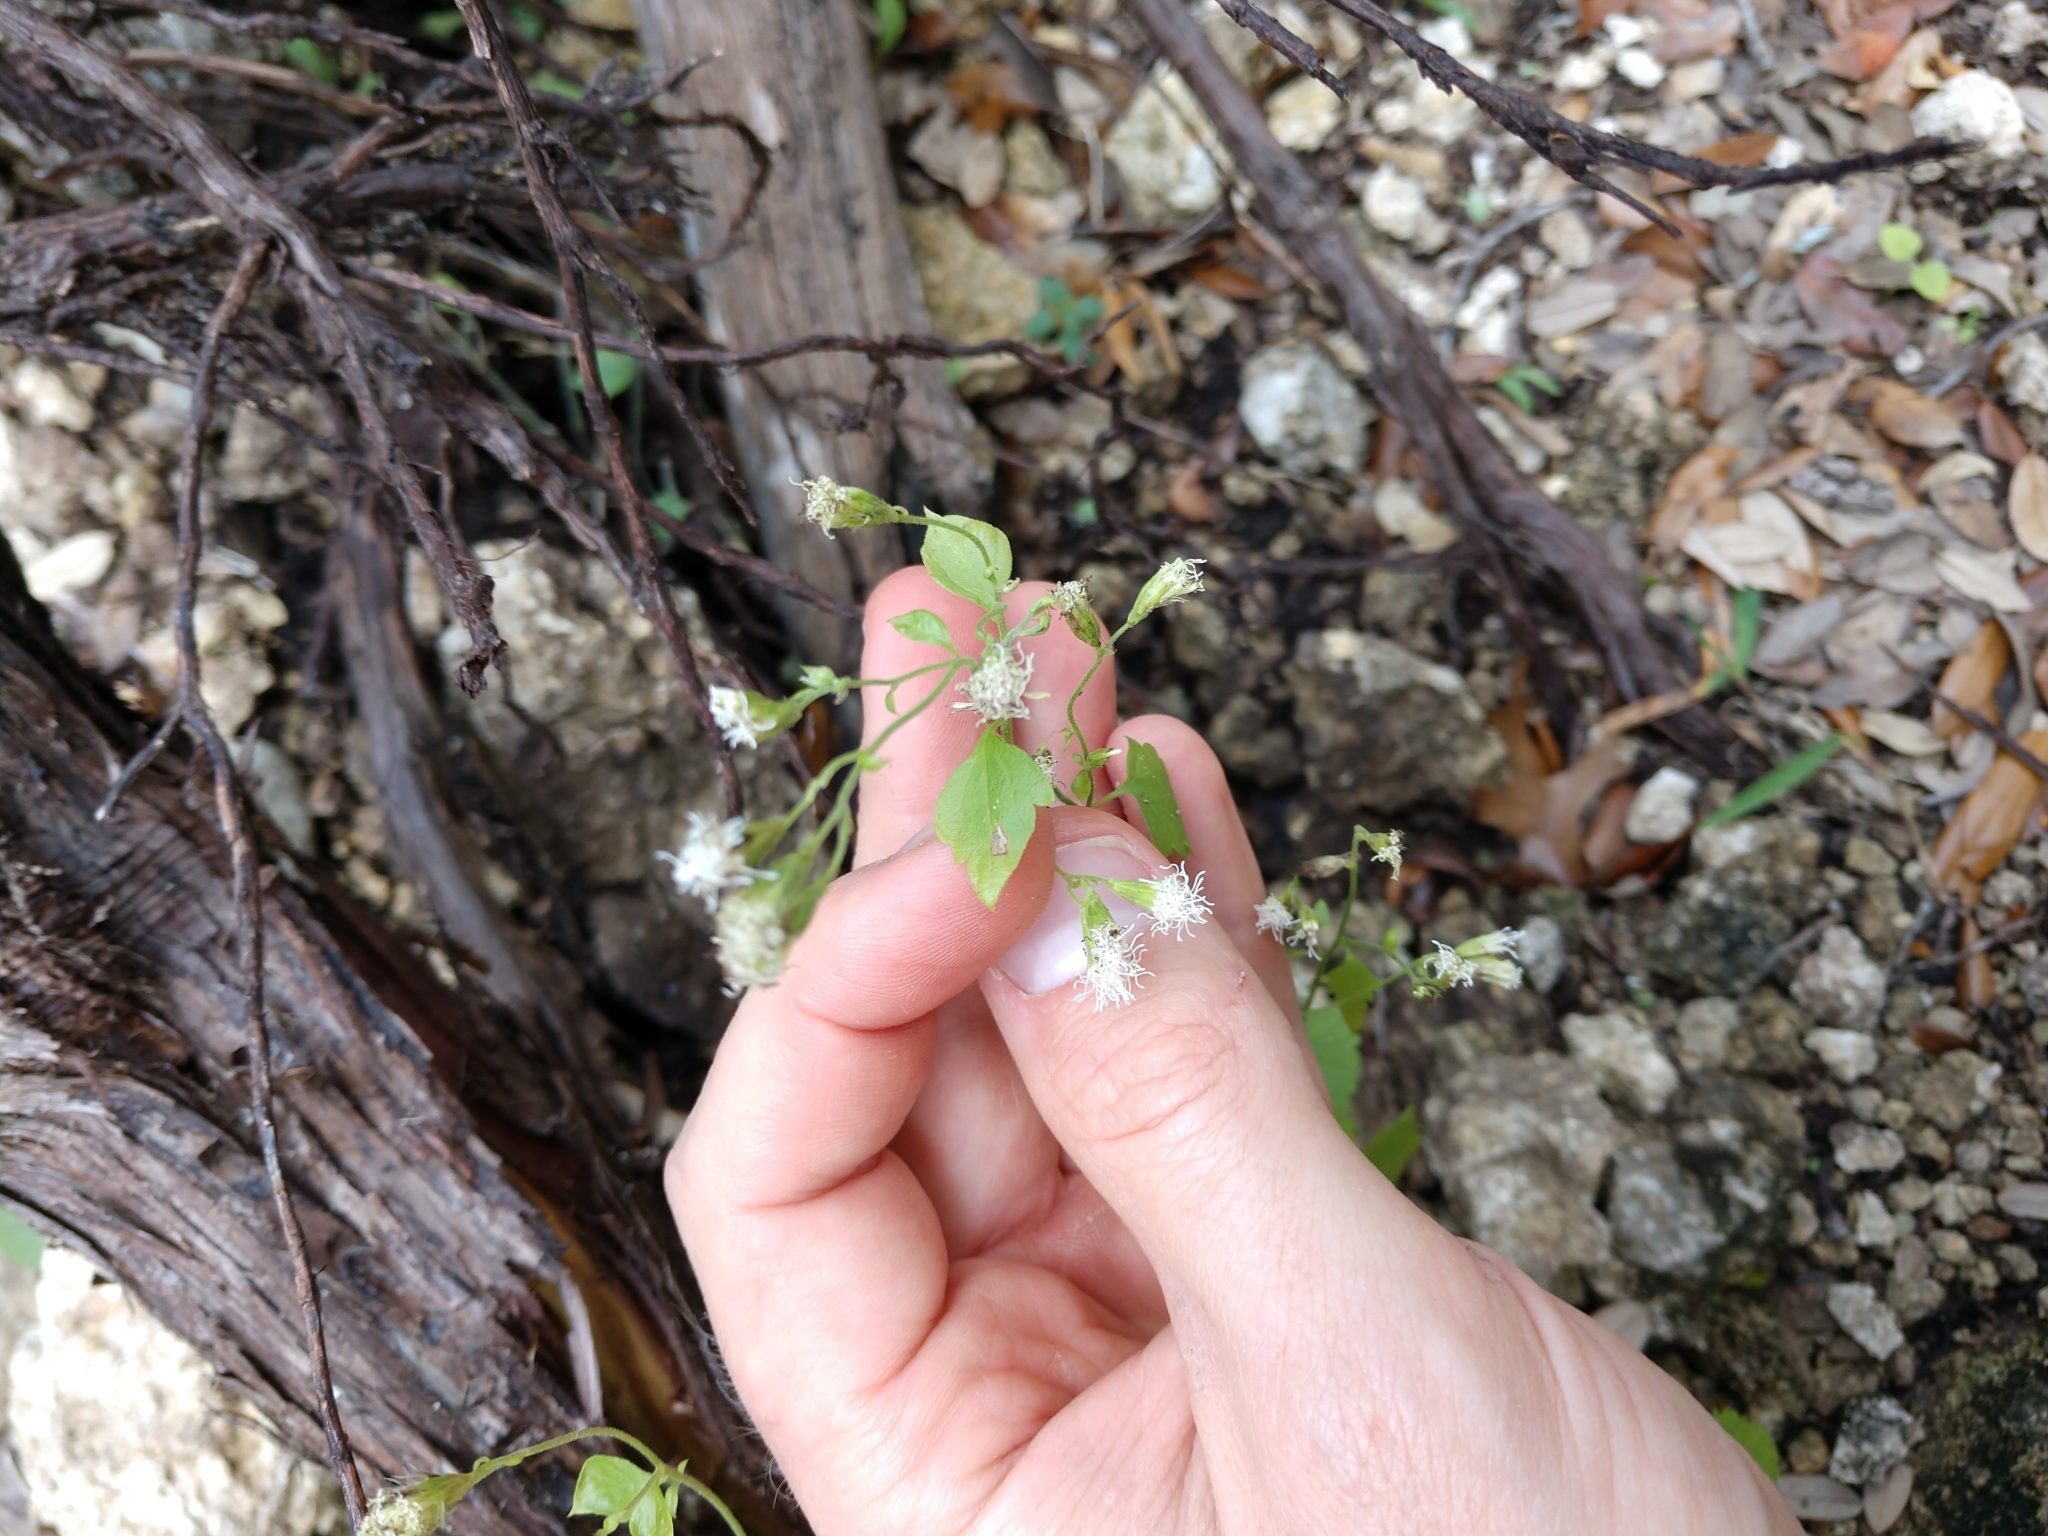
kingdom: Plantae
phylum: Tracheophyta
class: Magnoliopsida
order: Asterales
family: Asteraceae
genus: Fleischmannia
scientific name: Fleischmannia incarnata
